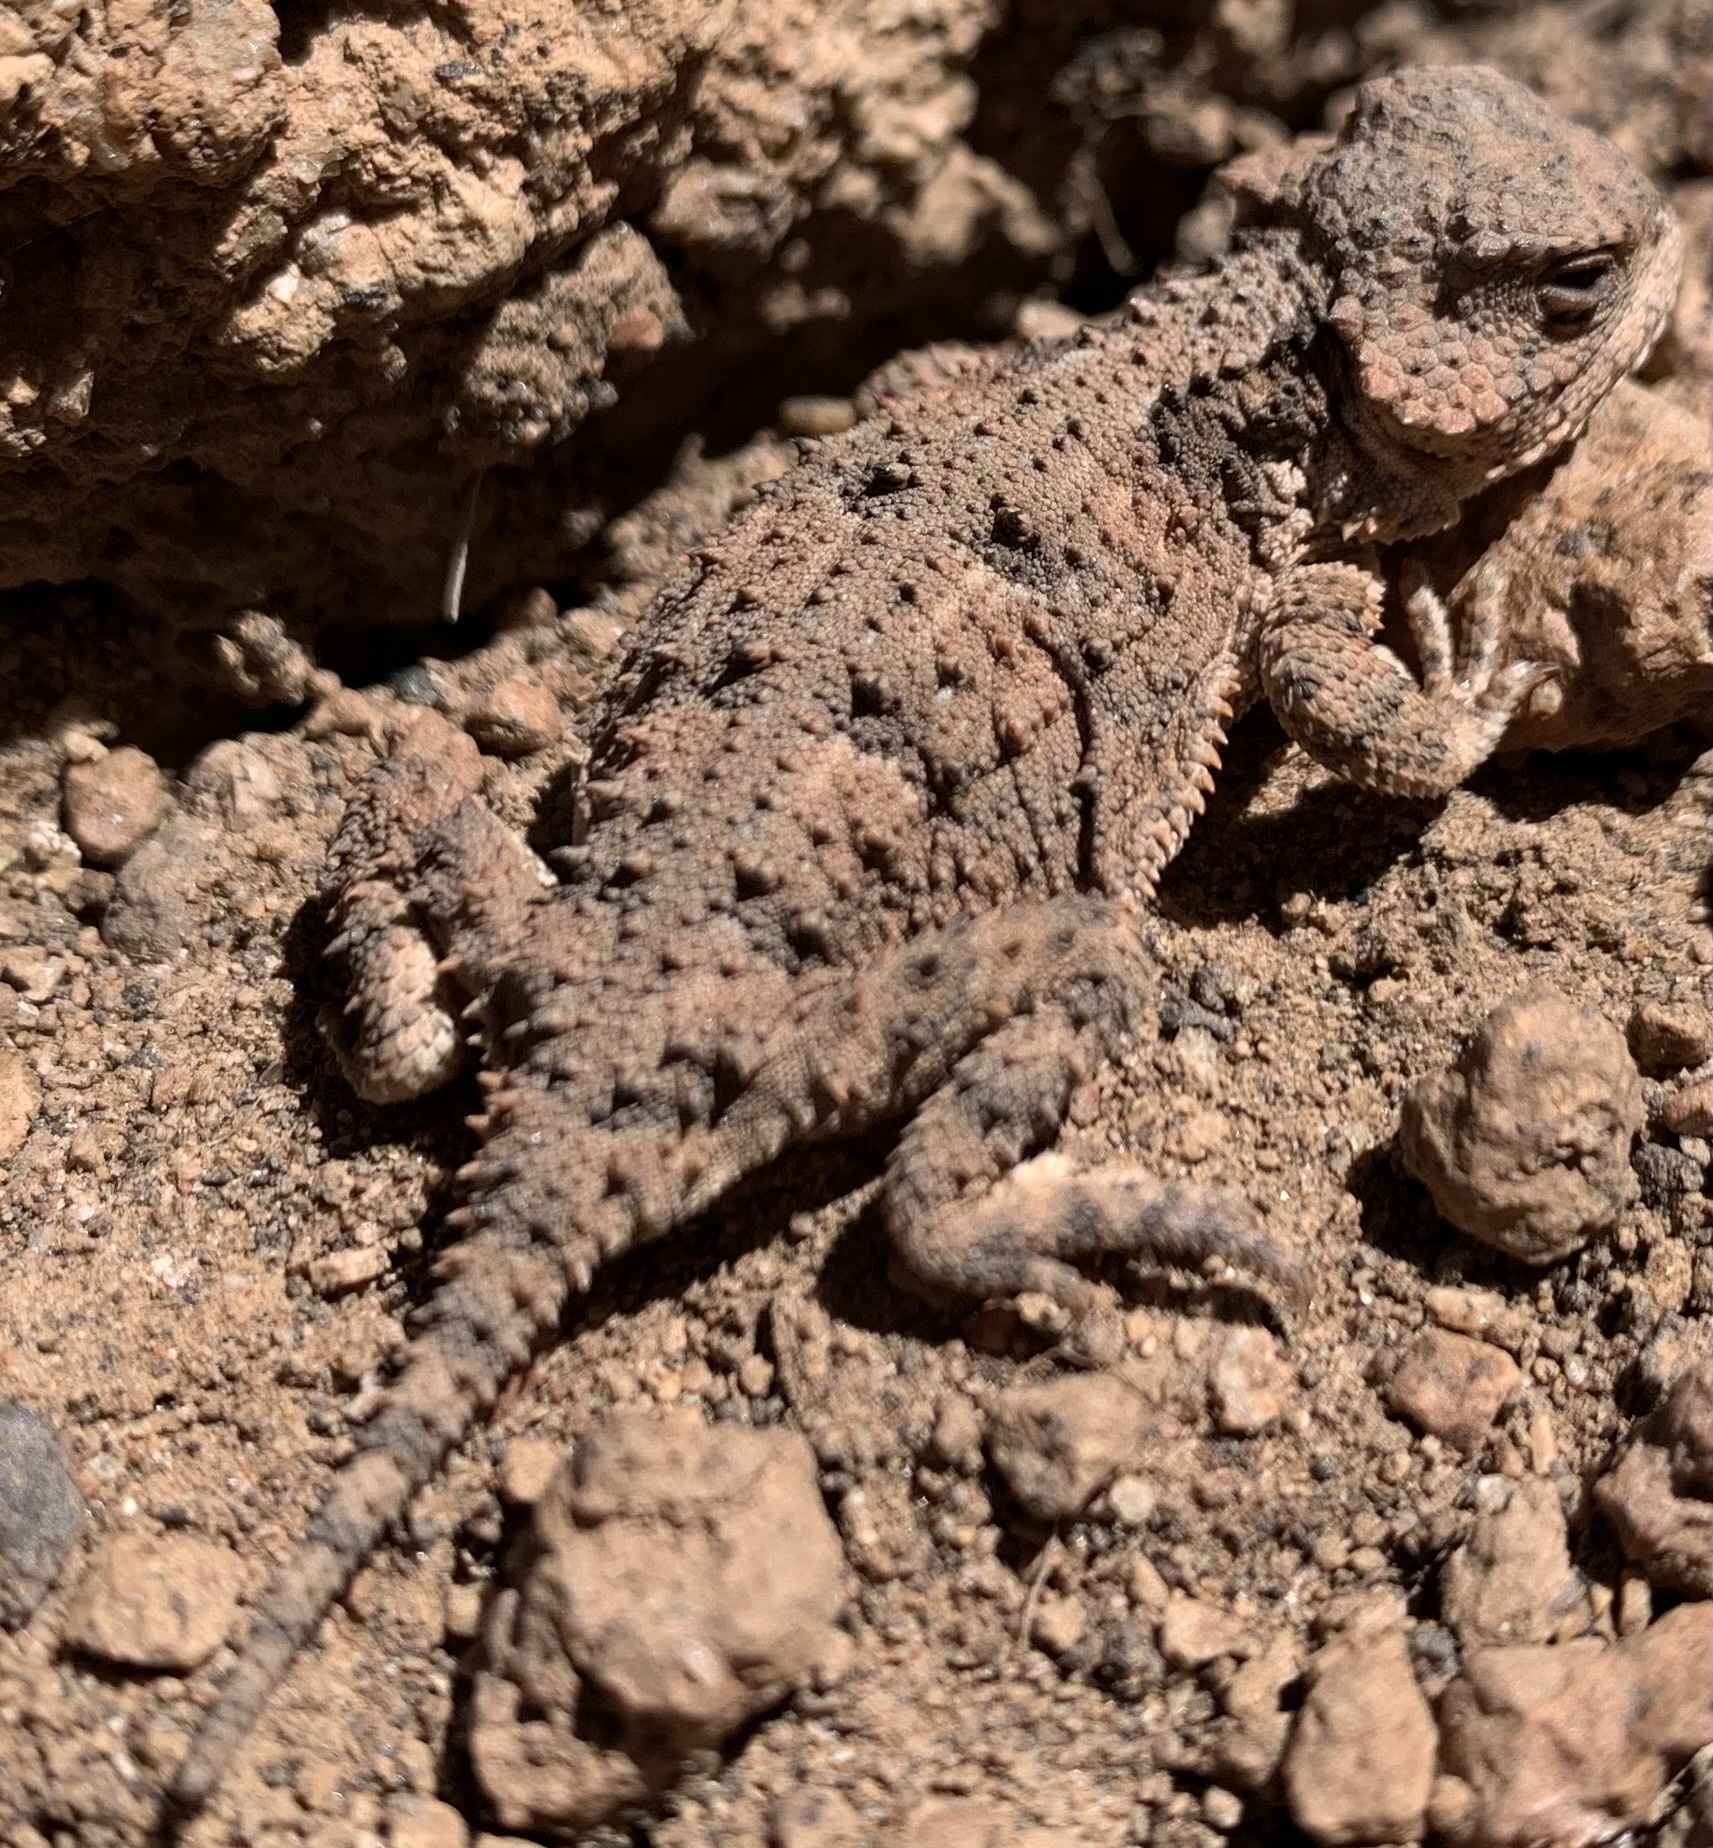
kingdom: Animalia
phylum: Chordata
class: Squamata
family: Phrynosomatidae
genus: Phrynosoma
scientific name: Phrynosoma hernandesi
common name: Greater short-horned lizard
